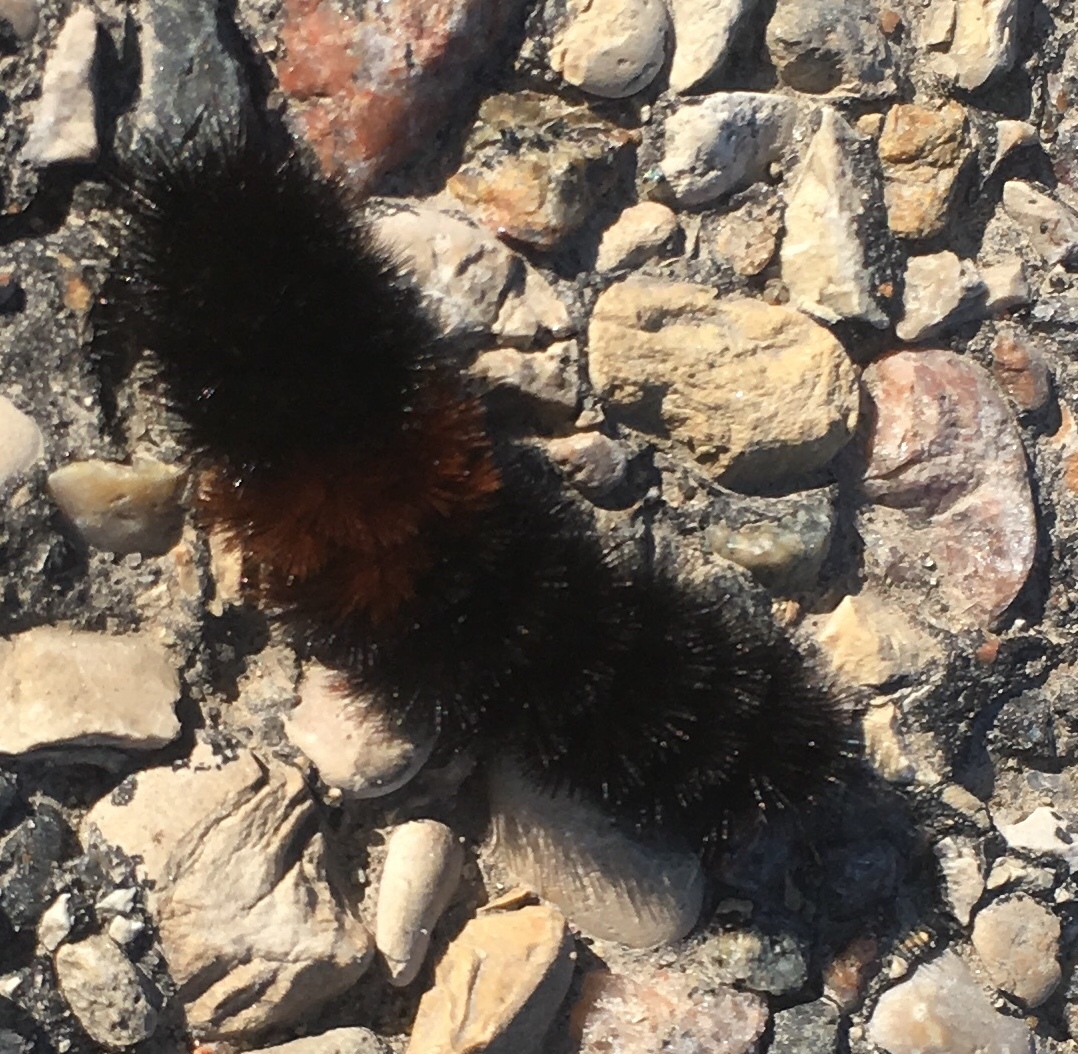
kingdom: Animalia
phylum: Arthropoda
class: Insecta
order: Lepidoptera
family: Erebidae
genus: Pyrrharctia
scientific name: Pyrrharctia isabella
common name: Isabella tiger moth
